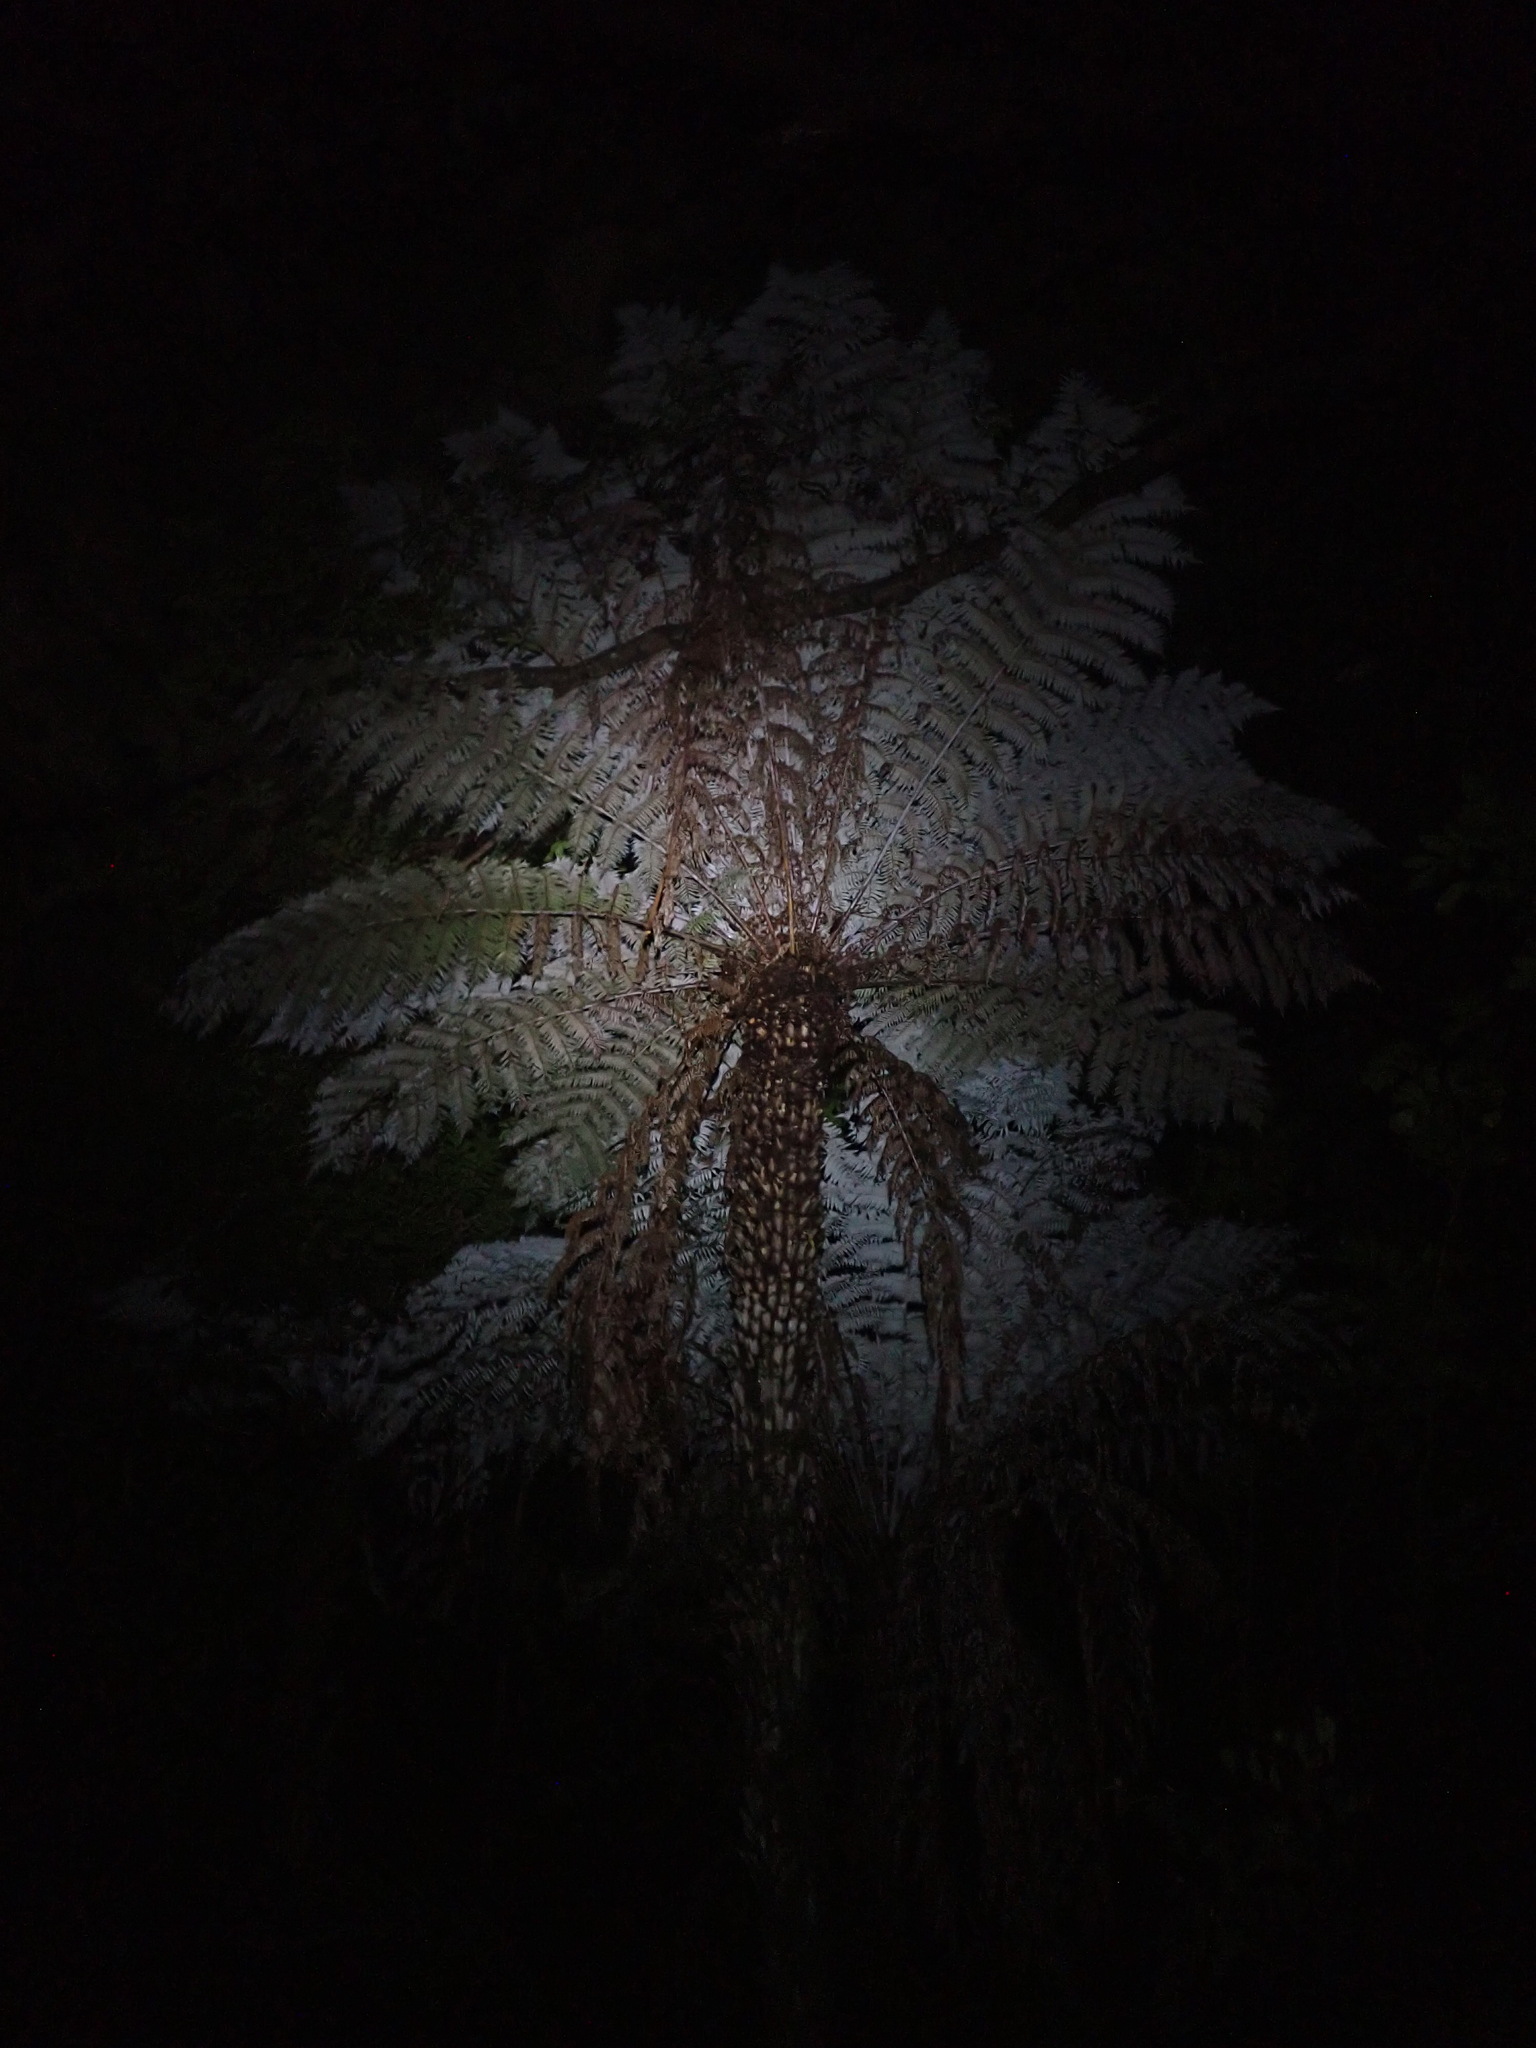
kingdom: Plantae
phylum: Tracheophyta
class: Polypodiopsida
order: Cyatheales
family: Cyatheaceae
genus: Alsophila
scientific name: Alsophila dealbata
